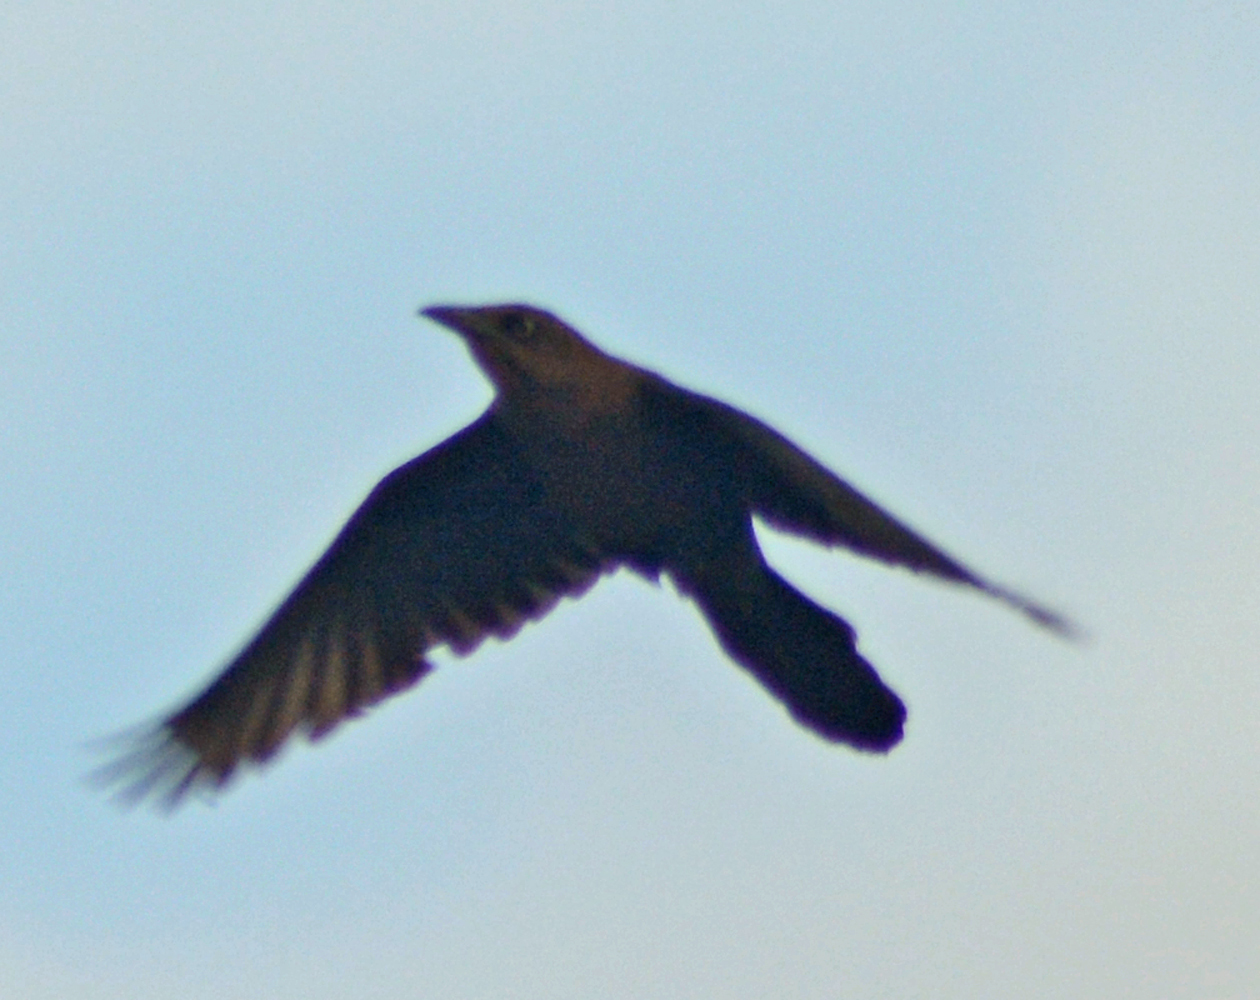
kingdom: Animalia
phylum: Chordata
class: Aves
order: Passeriformes
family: Icteridae
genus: Quiscalus
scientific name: Quiscalus mexicanus
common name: Great-tailed grackle
